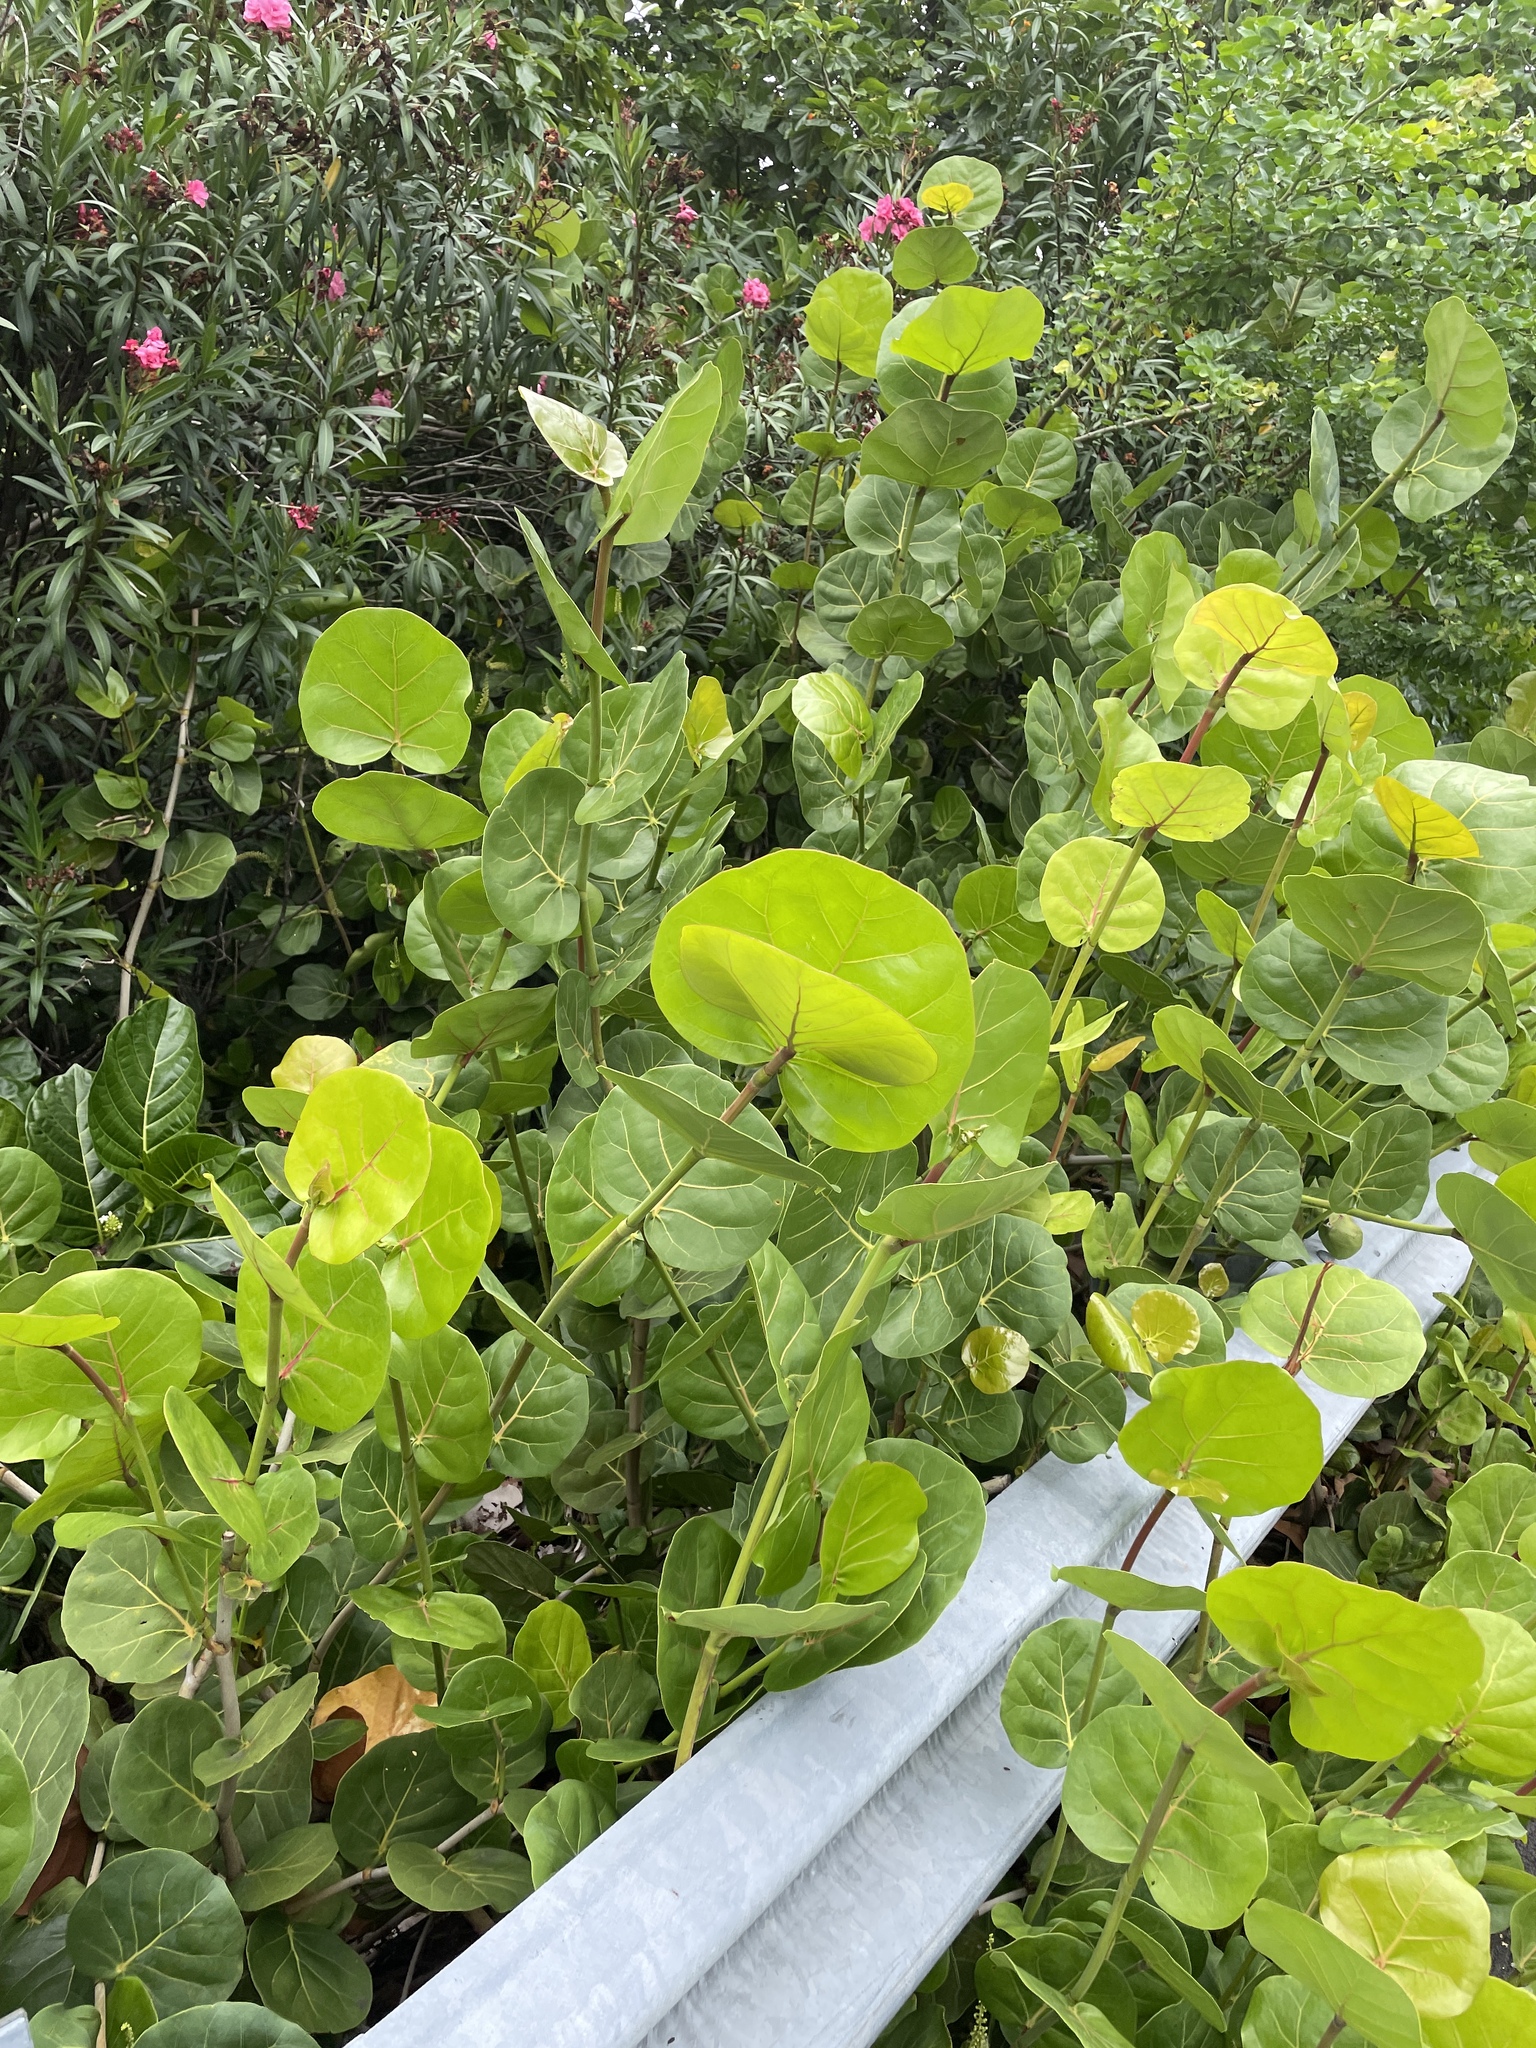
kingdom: Plantae
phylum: Tracheophyta
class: Magnoliopsida
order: Caryophyllales
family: Polygonaceae
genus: Coccoloba
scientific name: Coccoloba uvifera
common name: Seagrape
